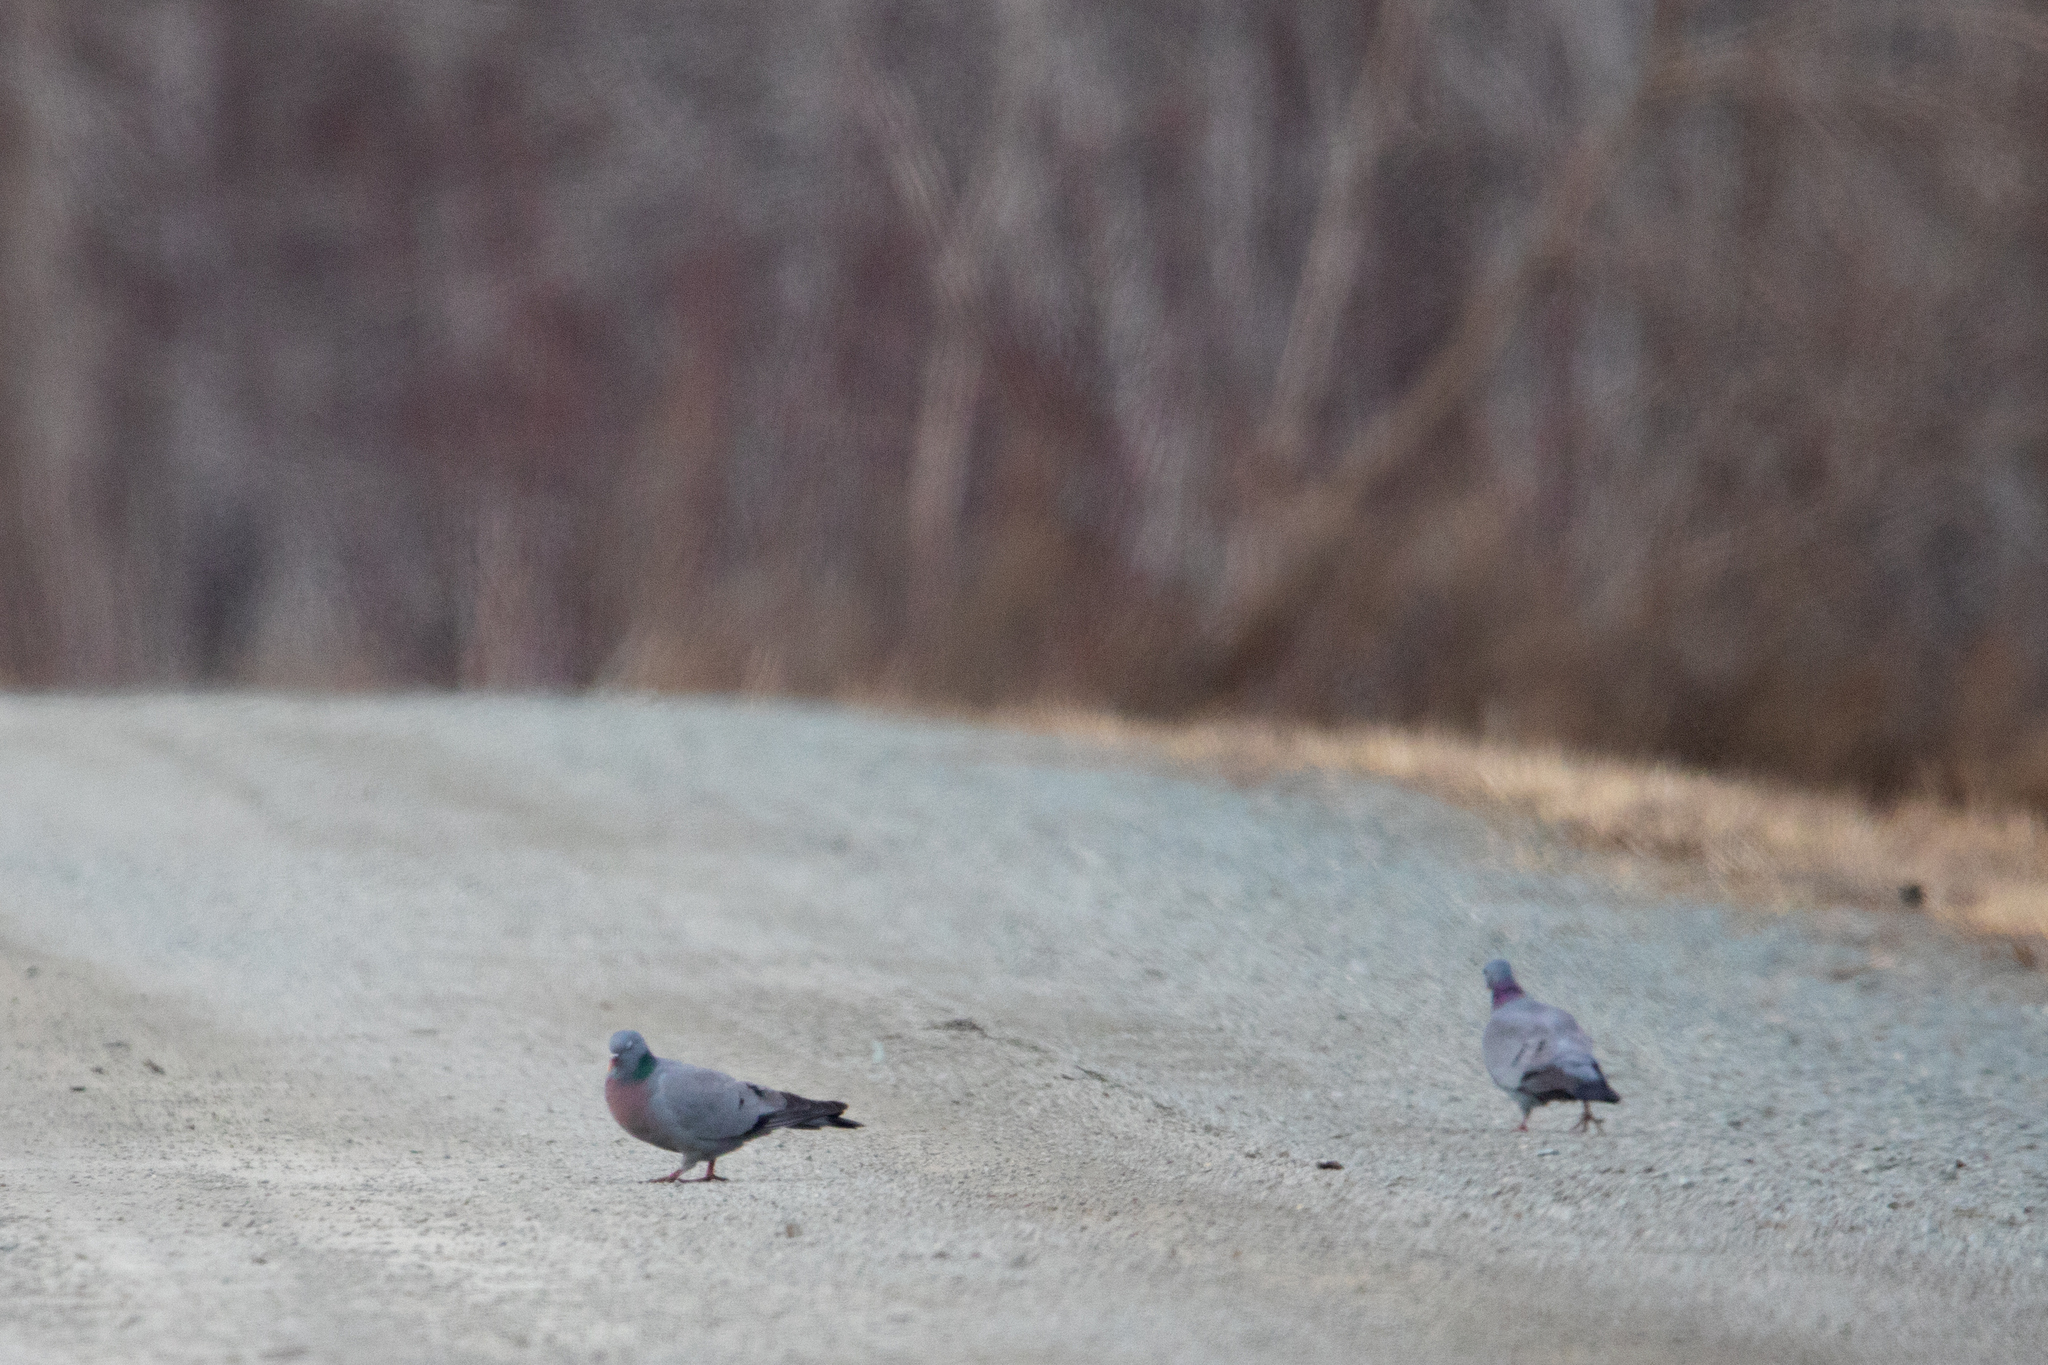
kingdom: Animalia
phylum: Chordata
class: Aves
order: Columbiformes
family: Columbidae
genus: Columba
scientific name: Columba oenas
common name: Stock dove
